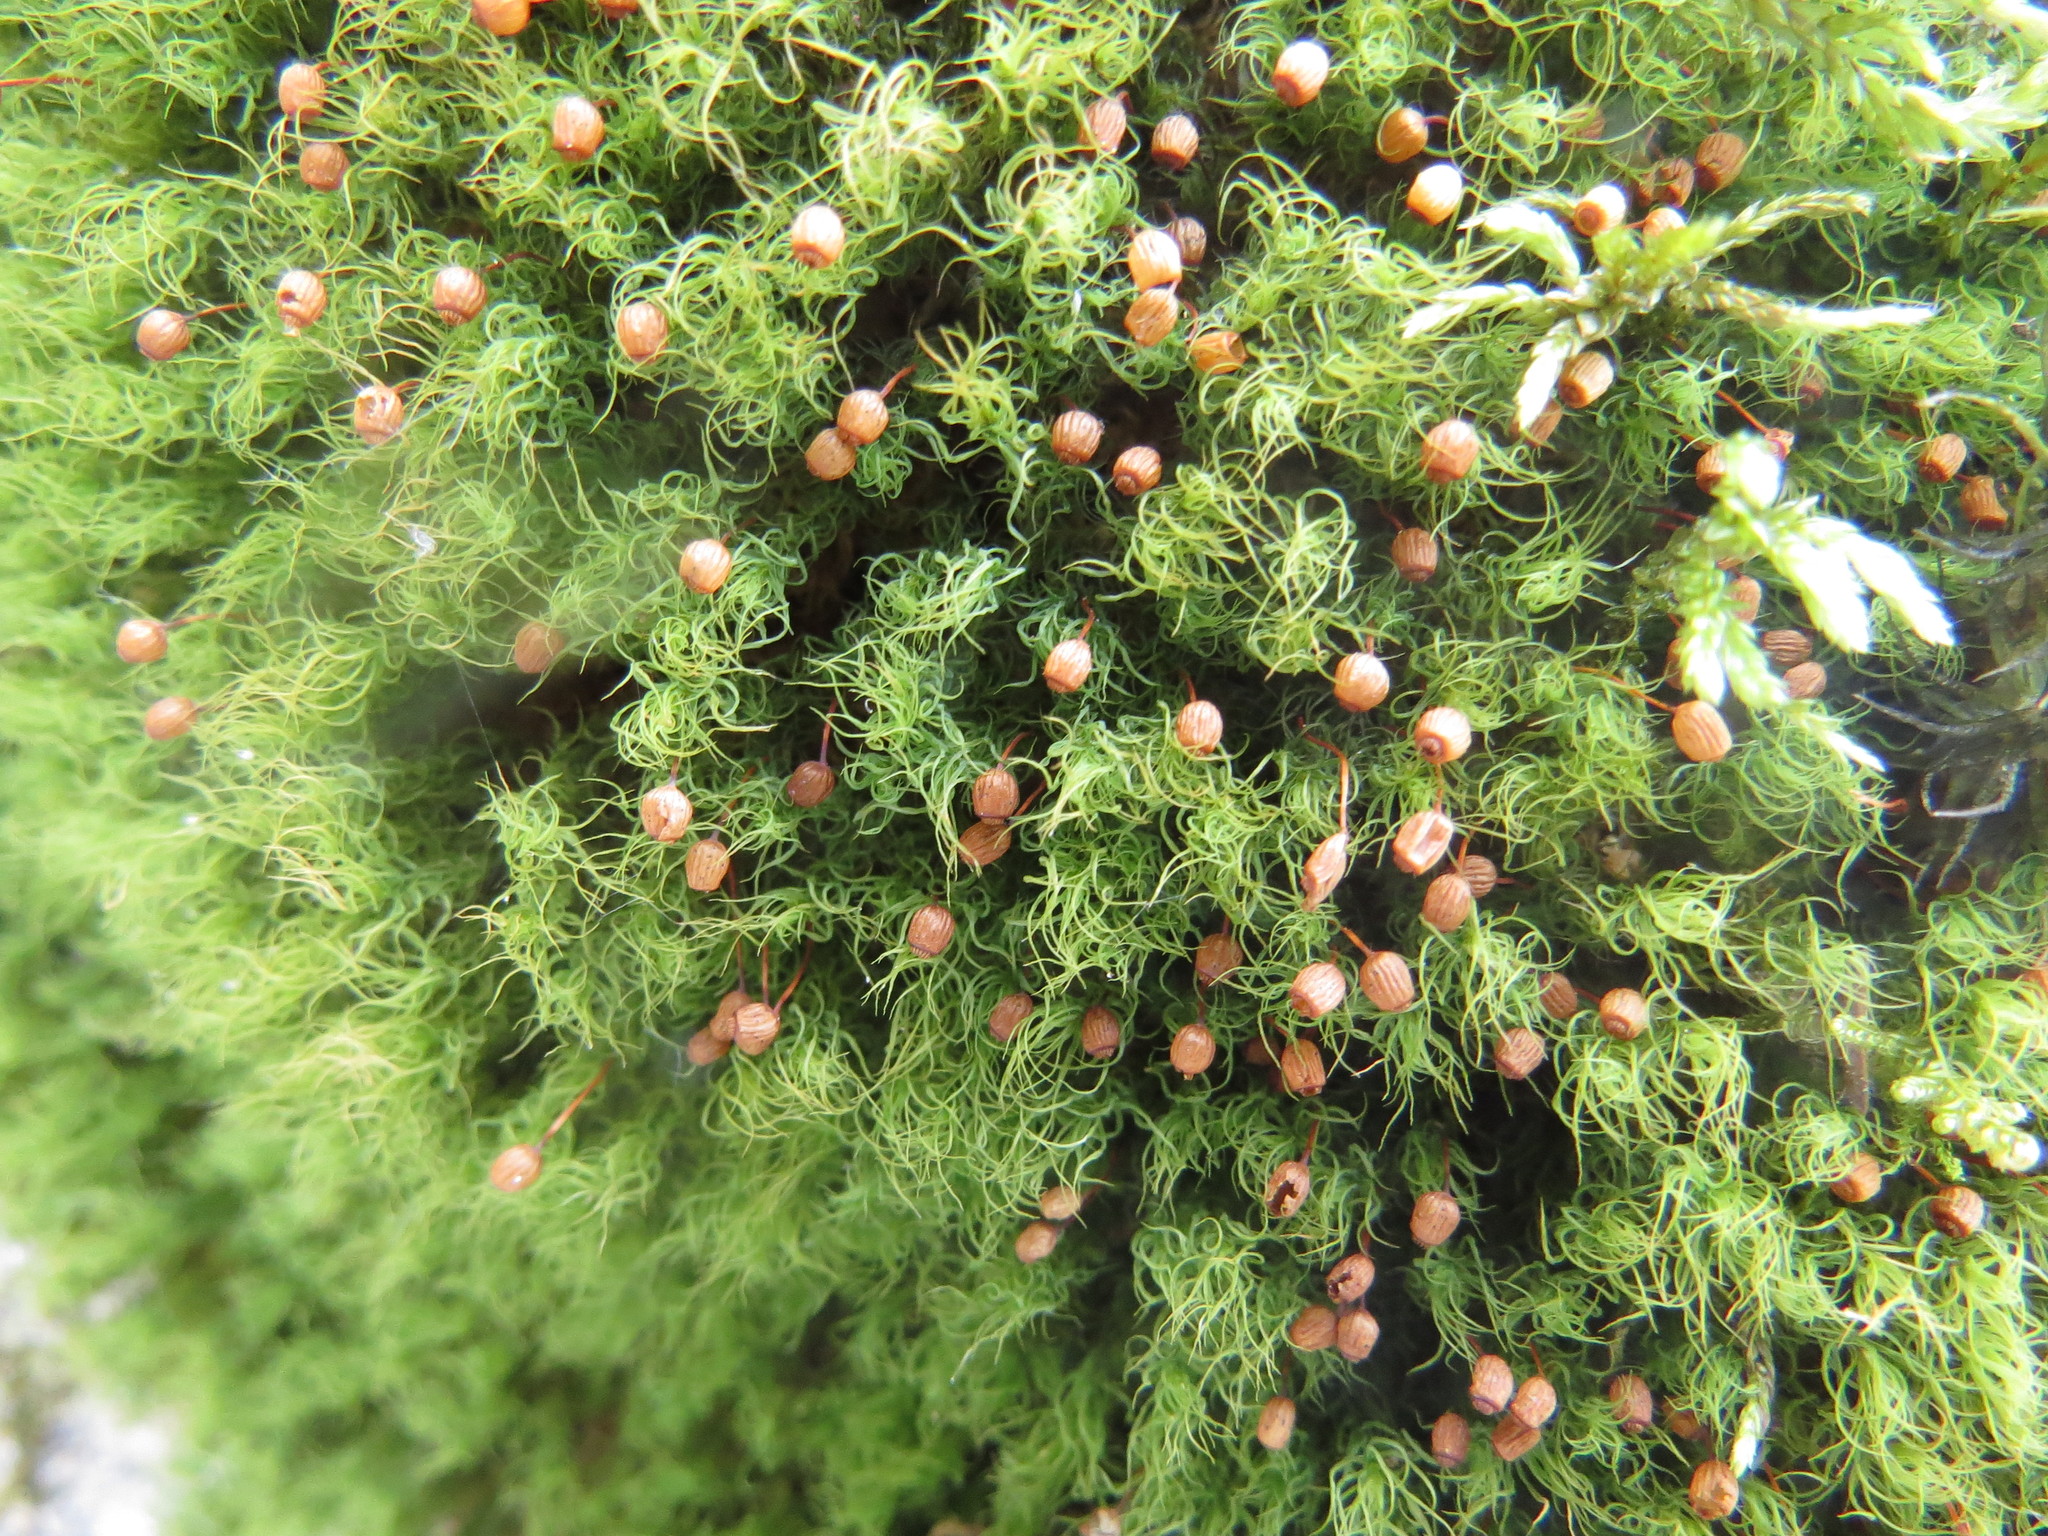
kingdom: Plantae
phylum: Bryophyta
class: Bryopsida
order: Bartramiales
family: Bartramiaceae
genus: Bartramia
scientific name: Bartramia ithyphylla
